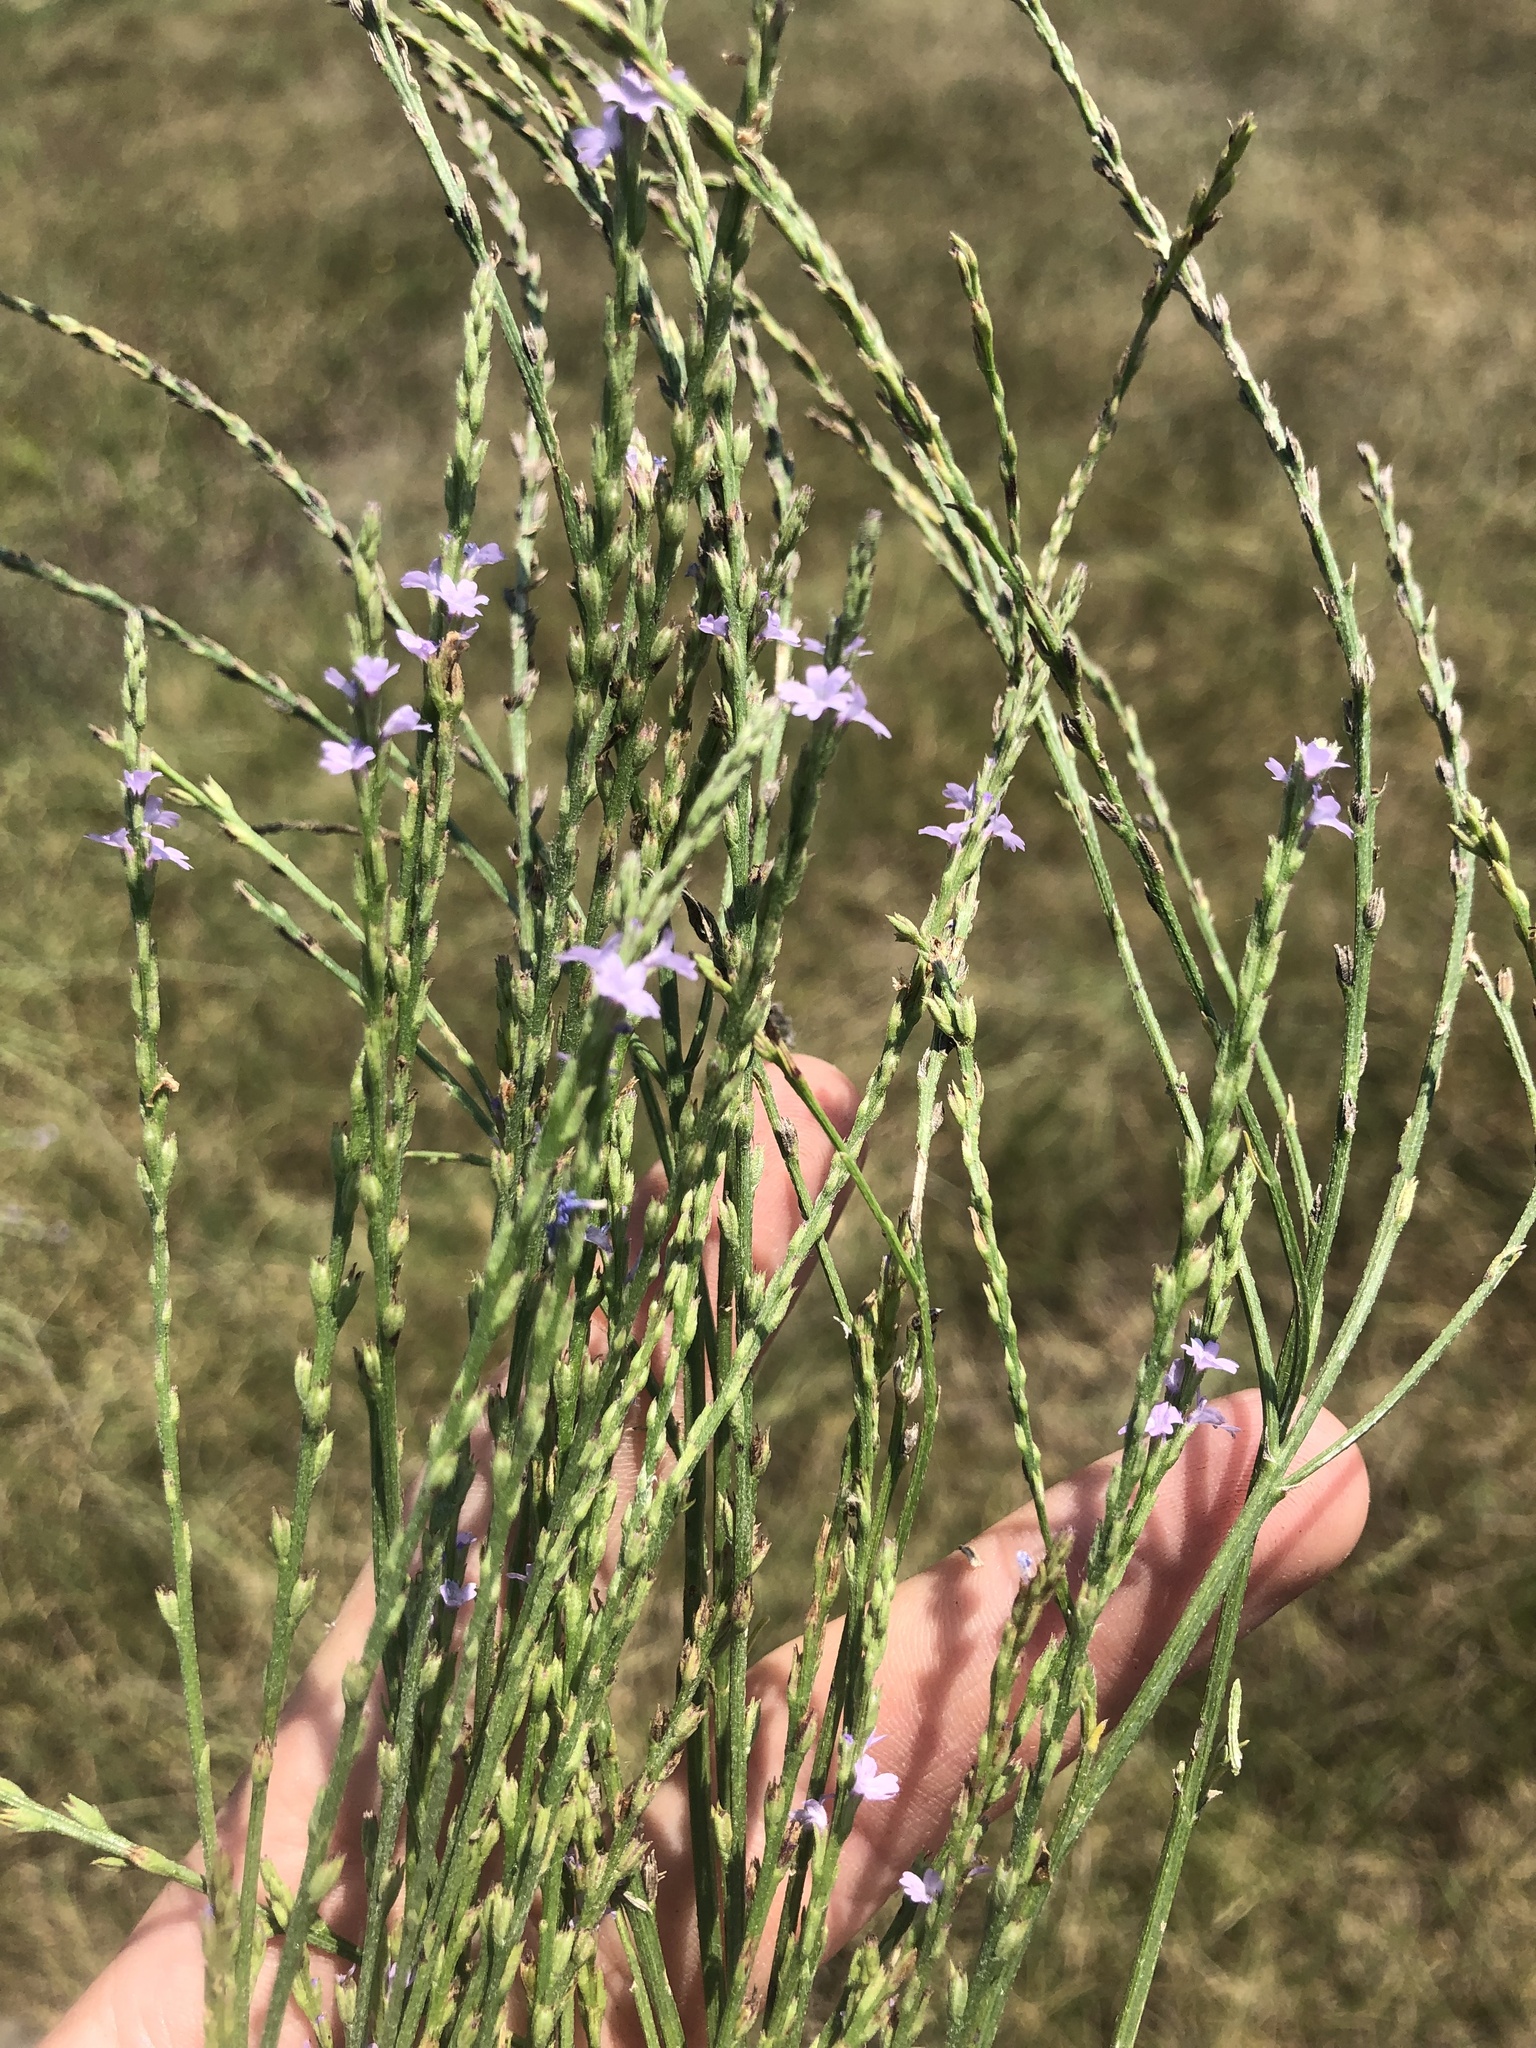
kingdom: Plantae
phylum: Tracheophyta
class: Magnoliopsida
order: Lamiales
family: Verbenaceae
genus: Verbena
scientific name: Verbena xutha
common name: Gulf vervain
